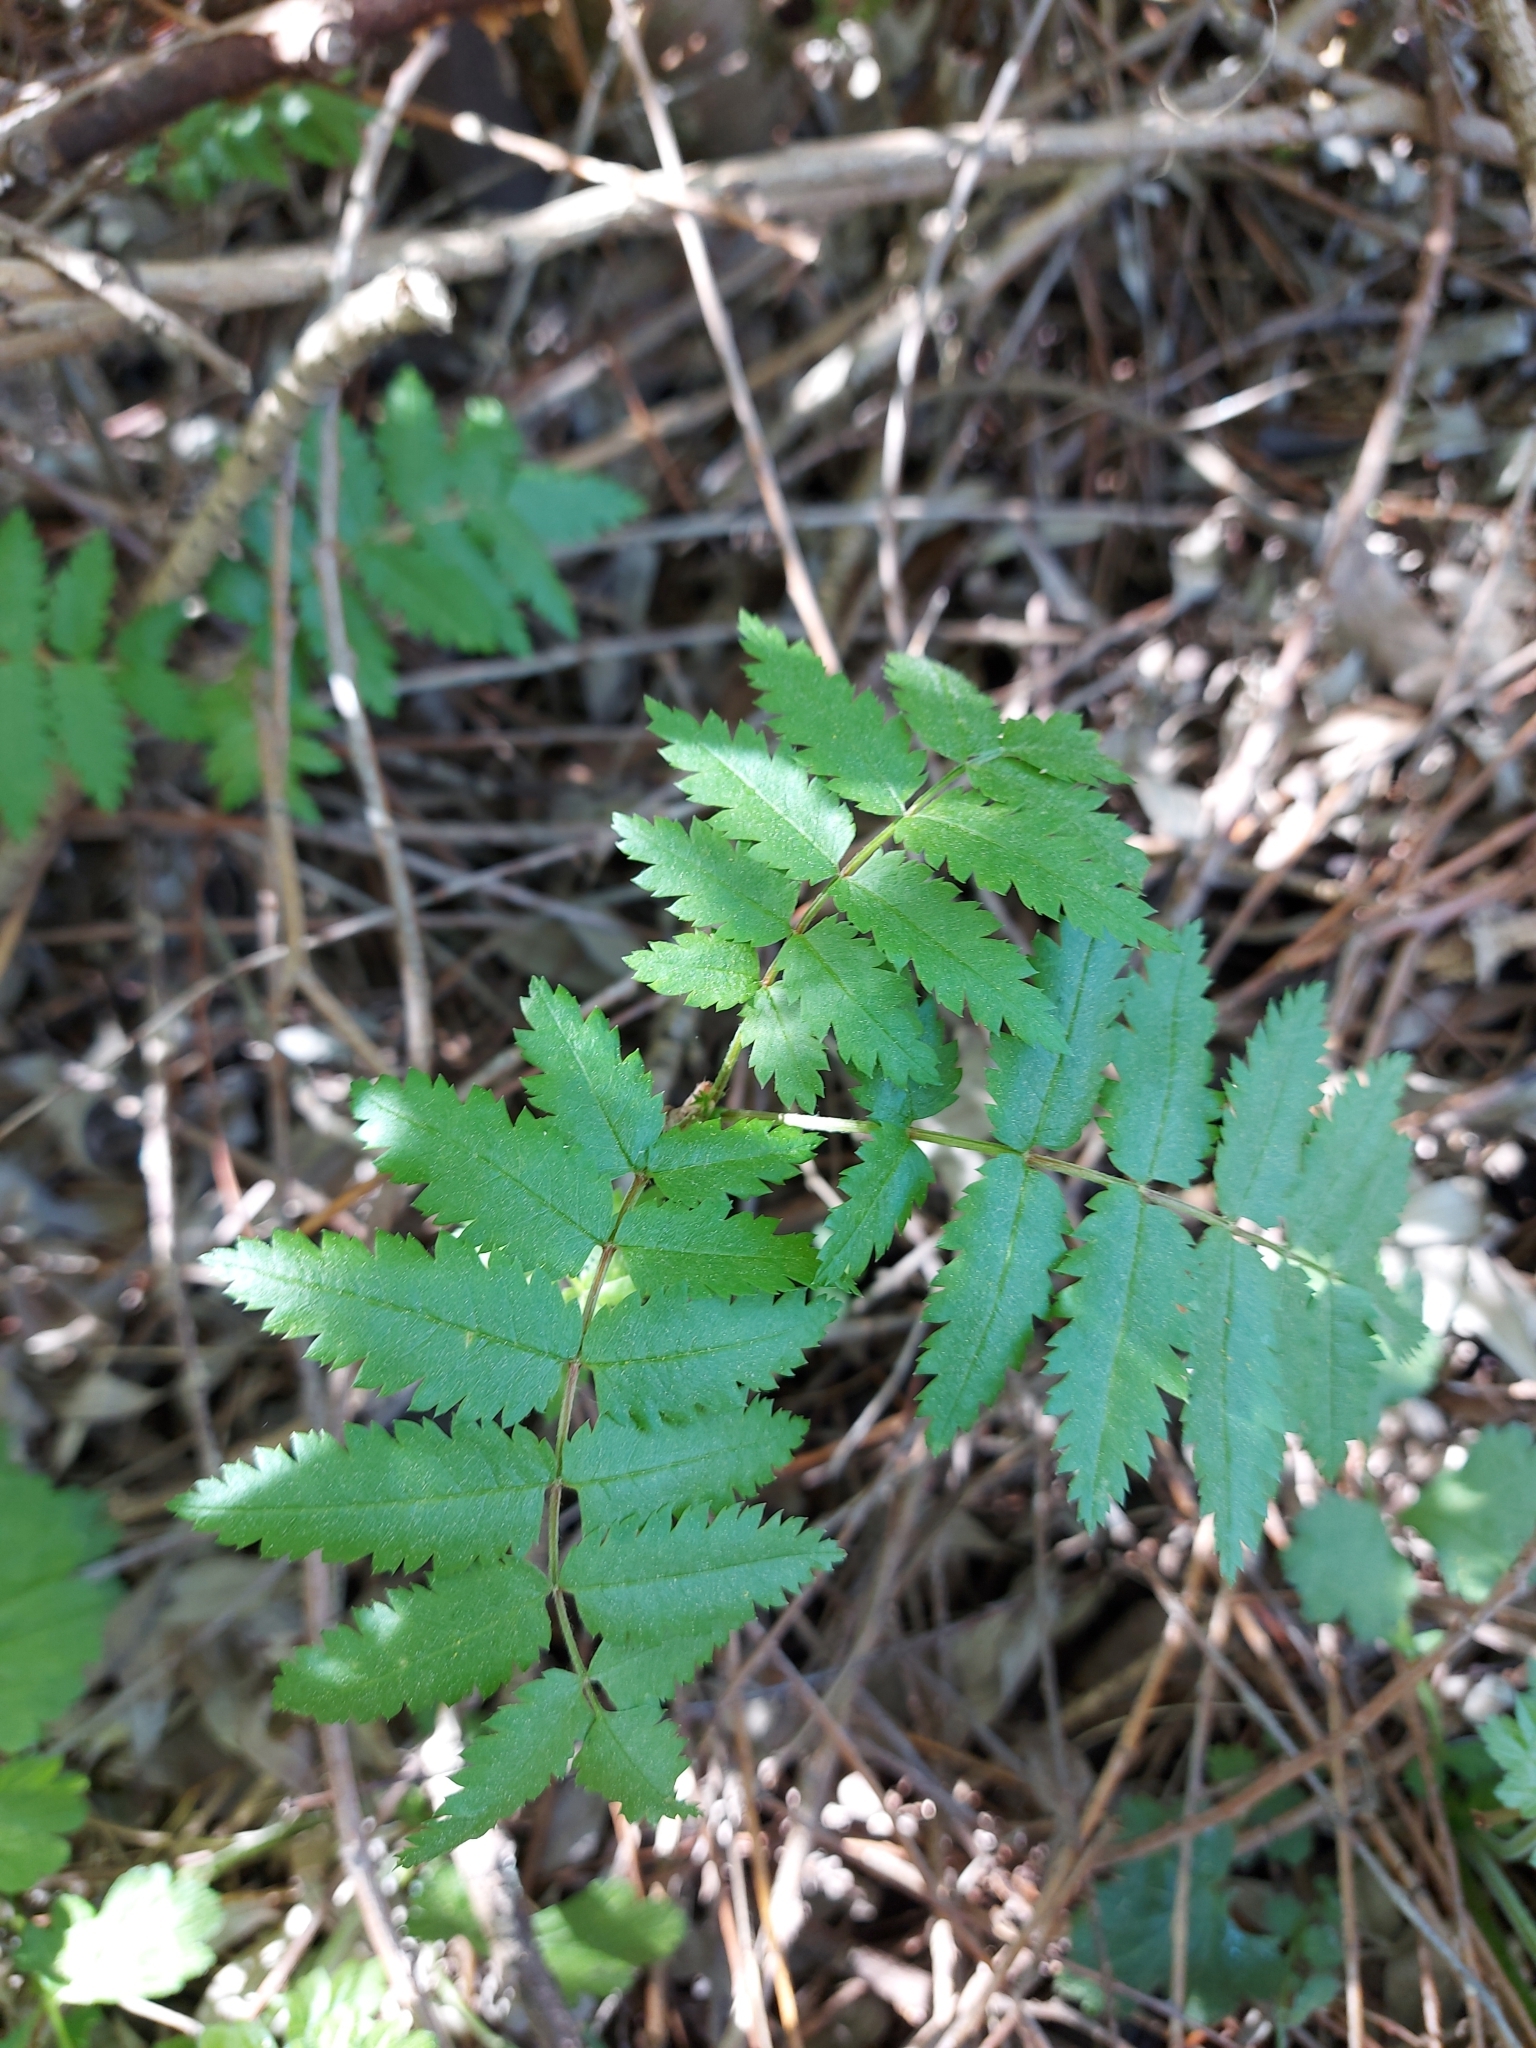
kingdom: Plantae
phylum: Tracheophyta
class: Magnoliopsida
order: Rosales
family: Rosaceae
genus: Sorbus
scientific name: Sorbus aucuparia
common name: Rowan
